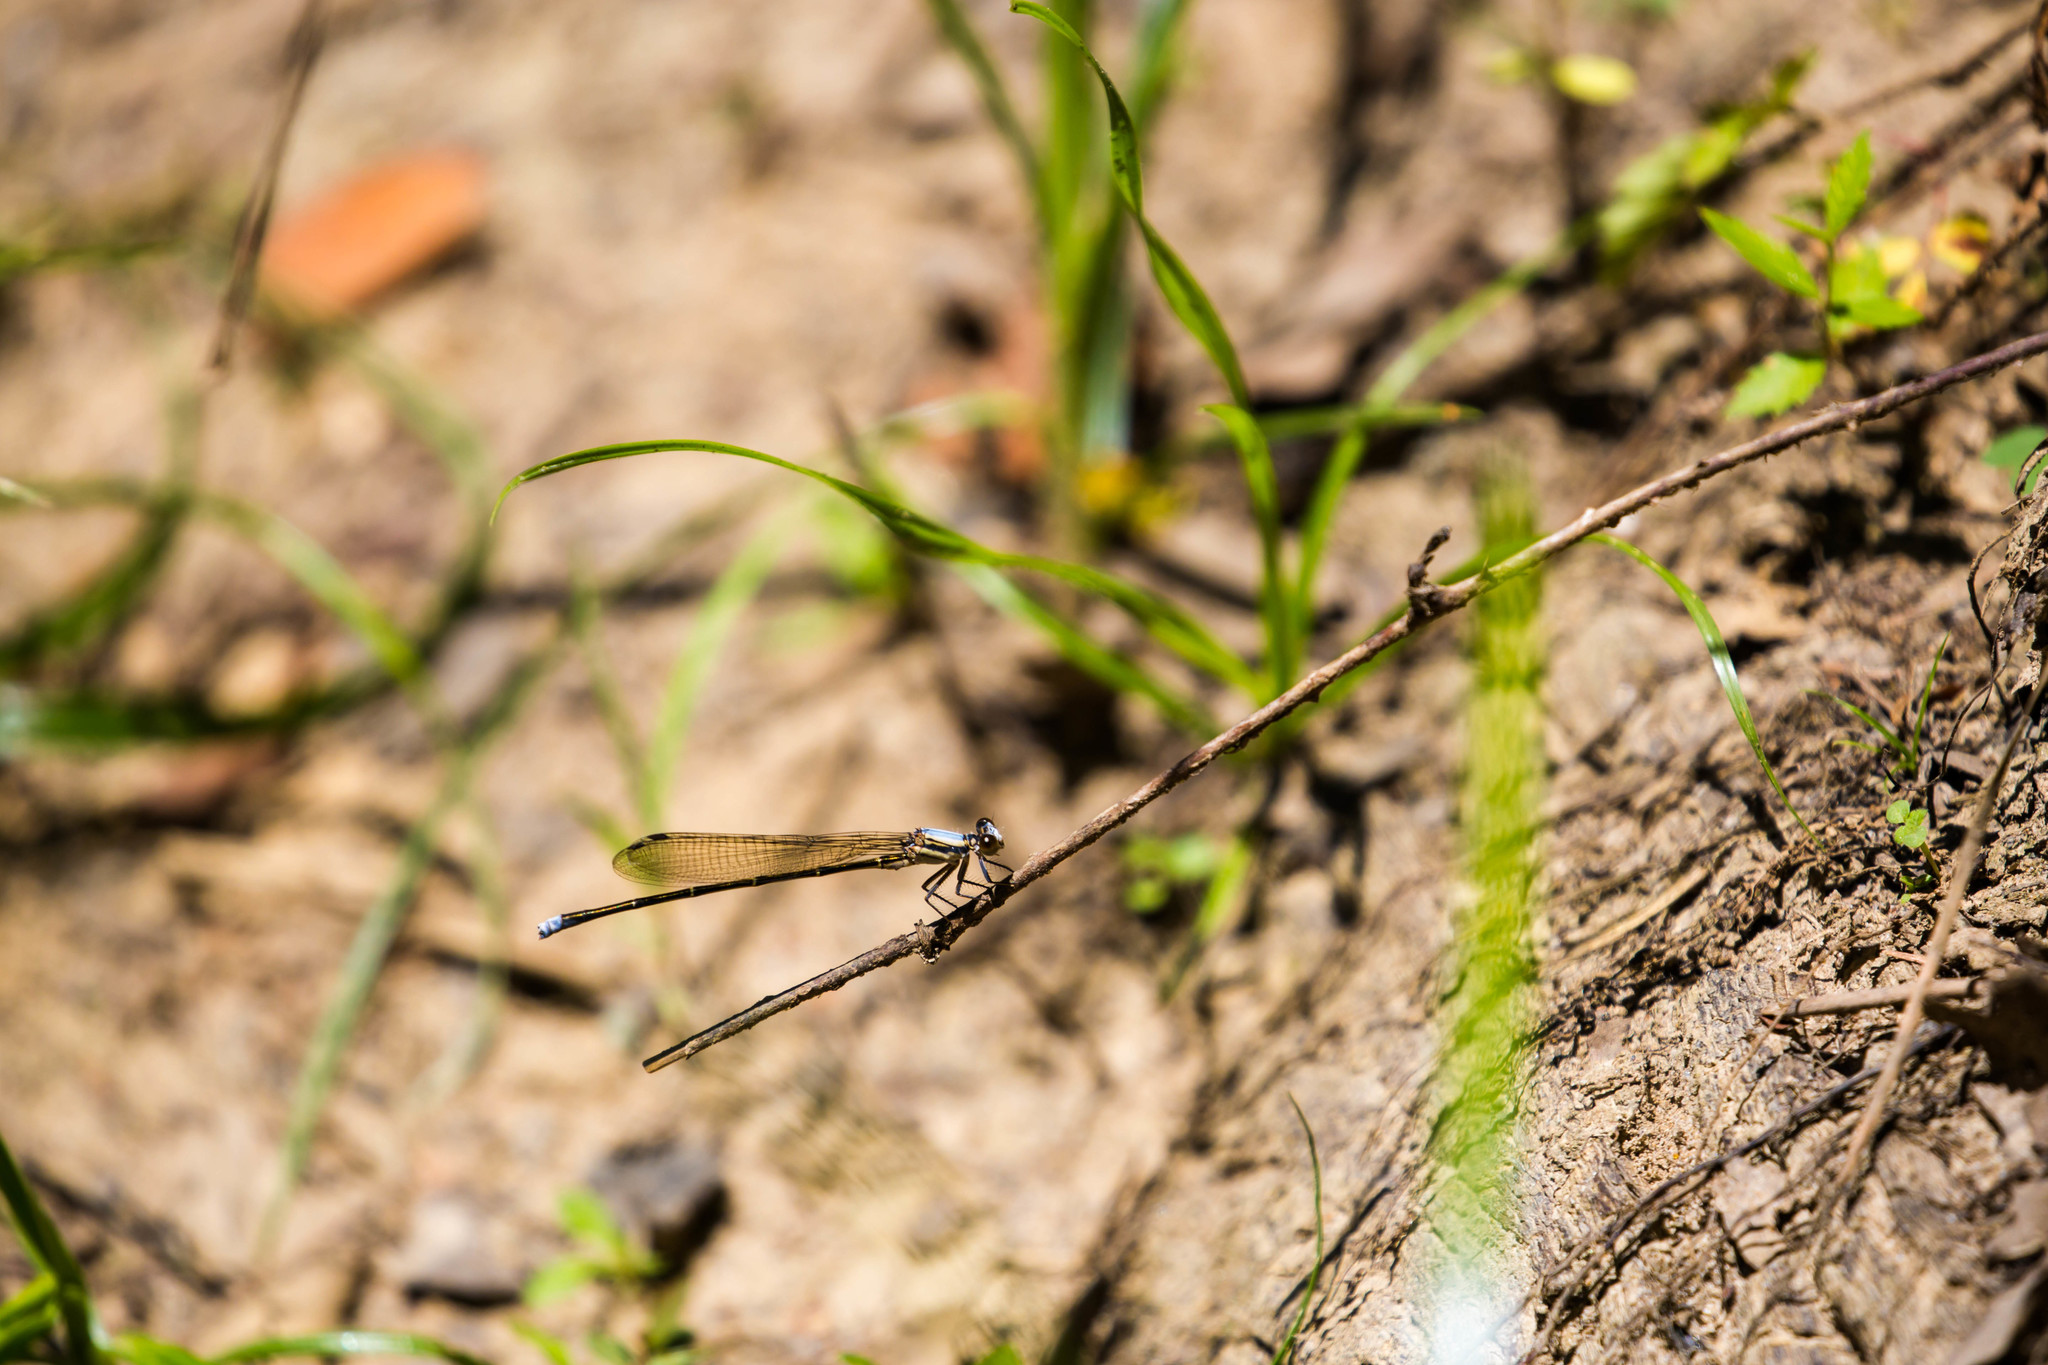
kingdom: Animalia
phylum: Arthropoda
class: Insecta
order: Odonata
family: Coenagrionidae
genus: Argia
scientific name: Argia moesta
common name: Powdered dancer
